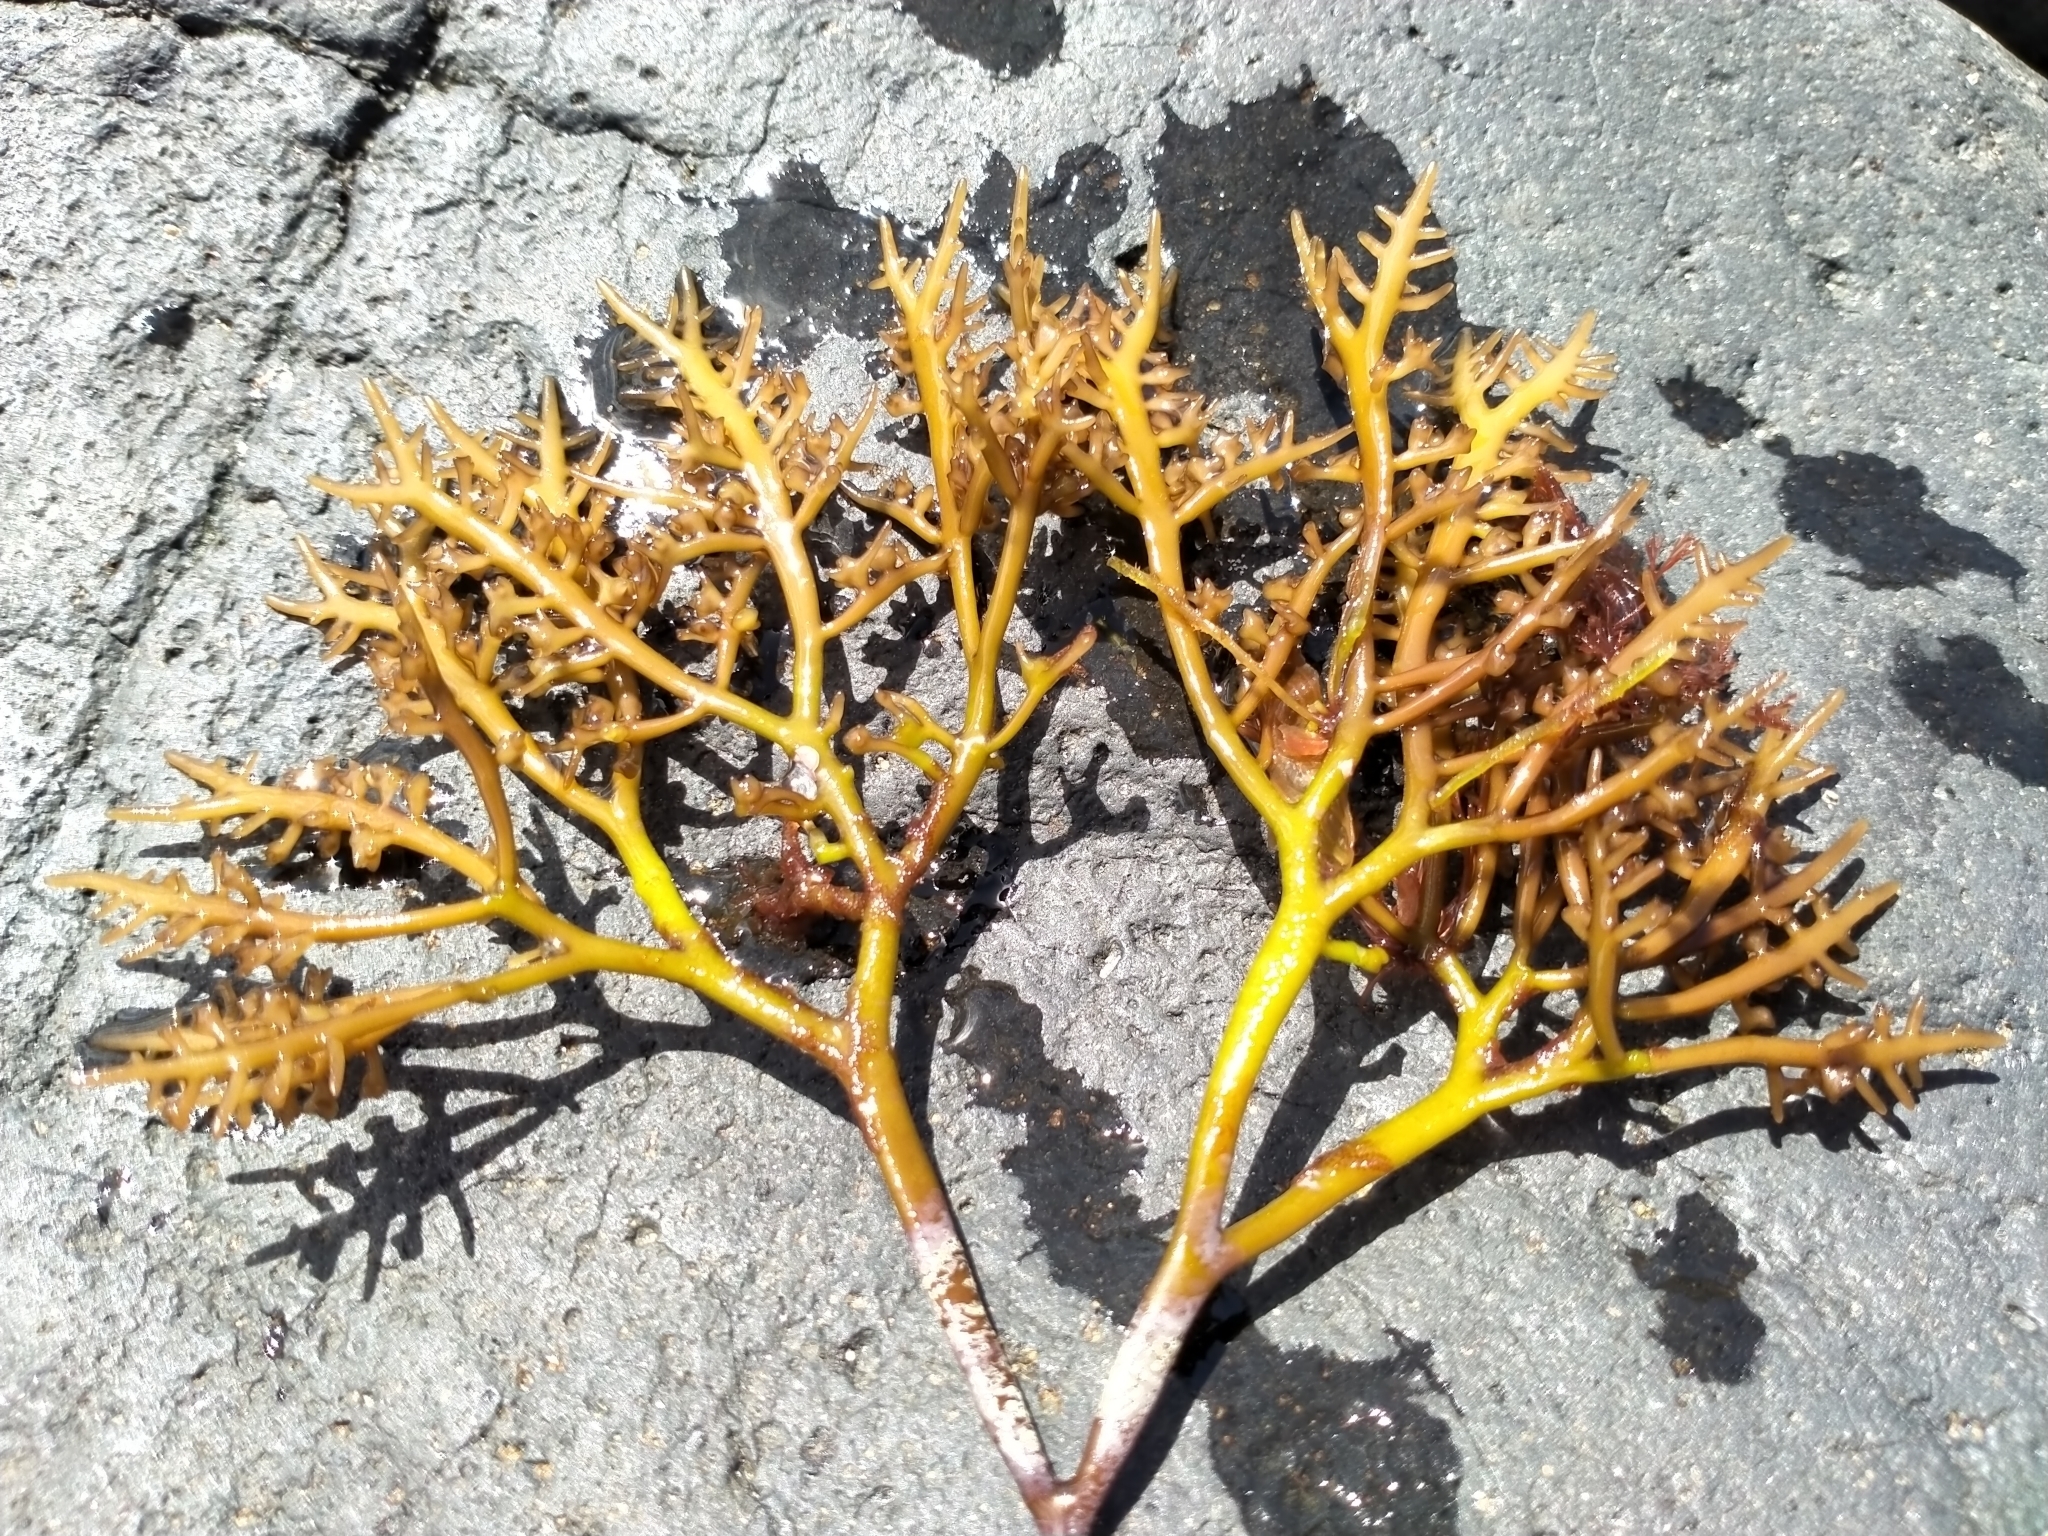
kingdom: Plantae
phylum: Rhodophyta
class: Florideophyceae
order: Gigartinales
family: Gigartinaceae
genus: Gigartina
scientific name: Gigartina clavifera
